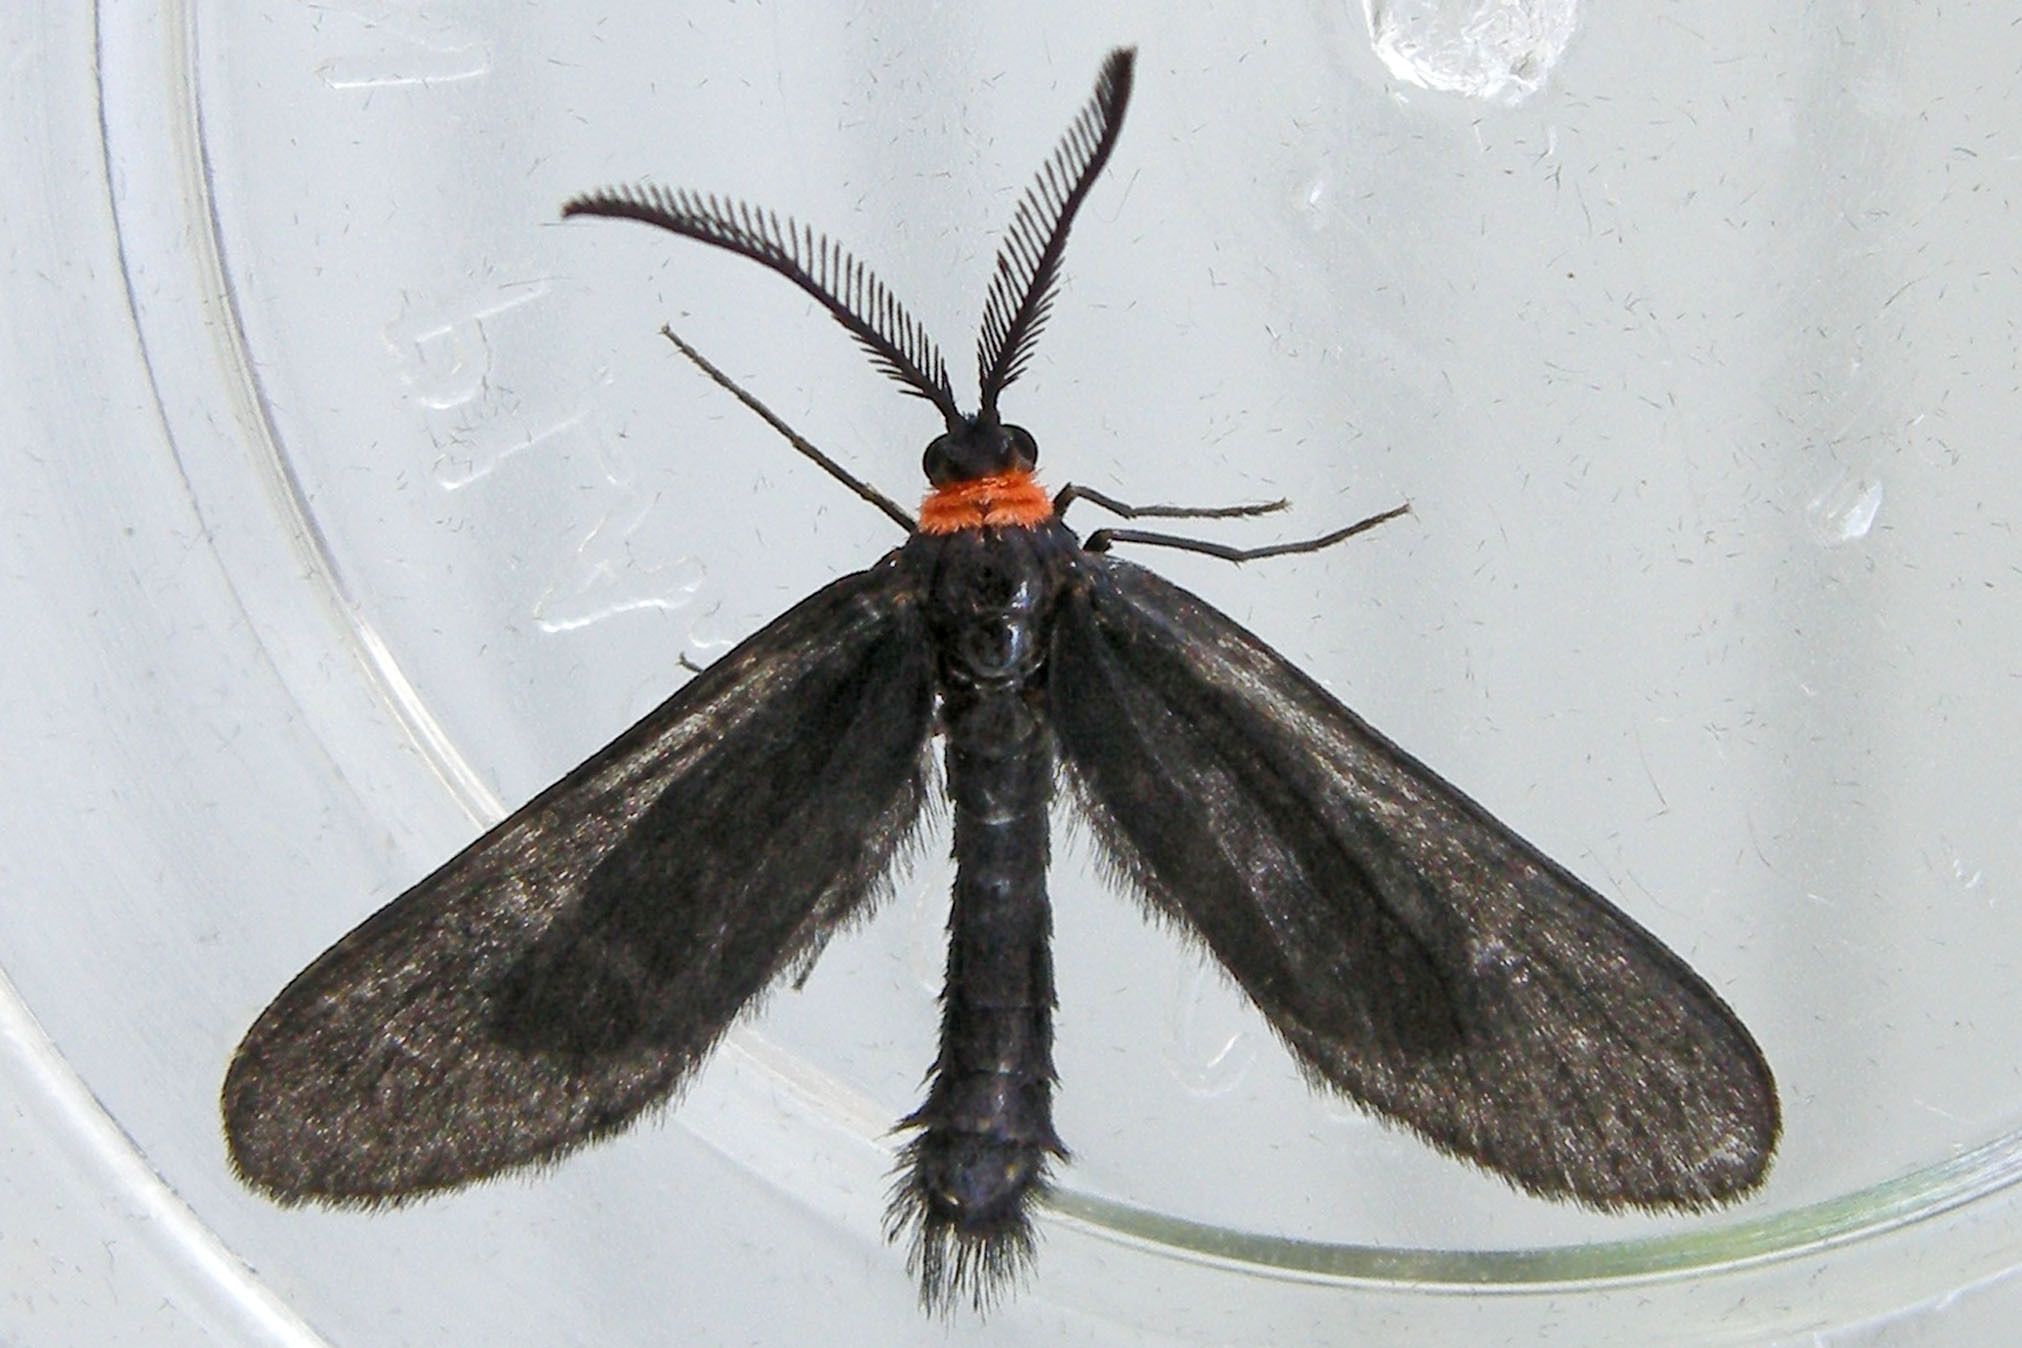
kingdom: Animalia
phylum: Arthropoda
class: Insecta
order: Lepidoptera
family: Zygaenidae
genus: Harrisina
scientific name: Harrisina americana
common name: Grapeleaf skeletonizer moth
